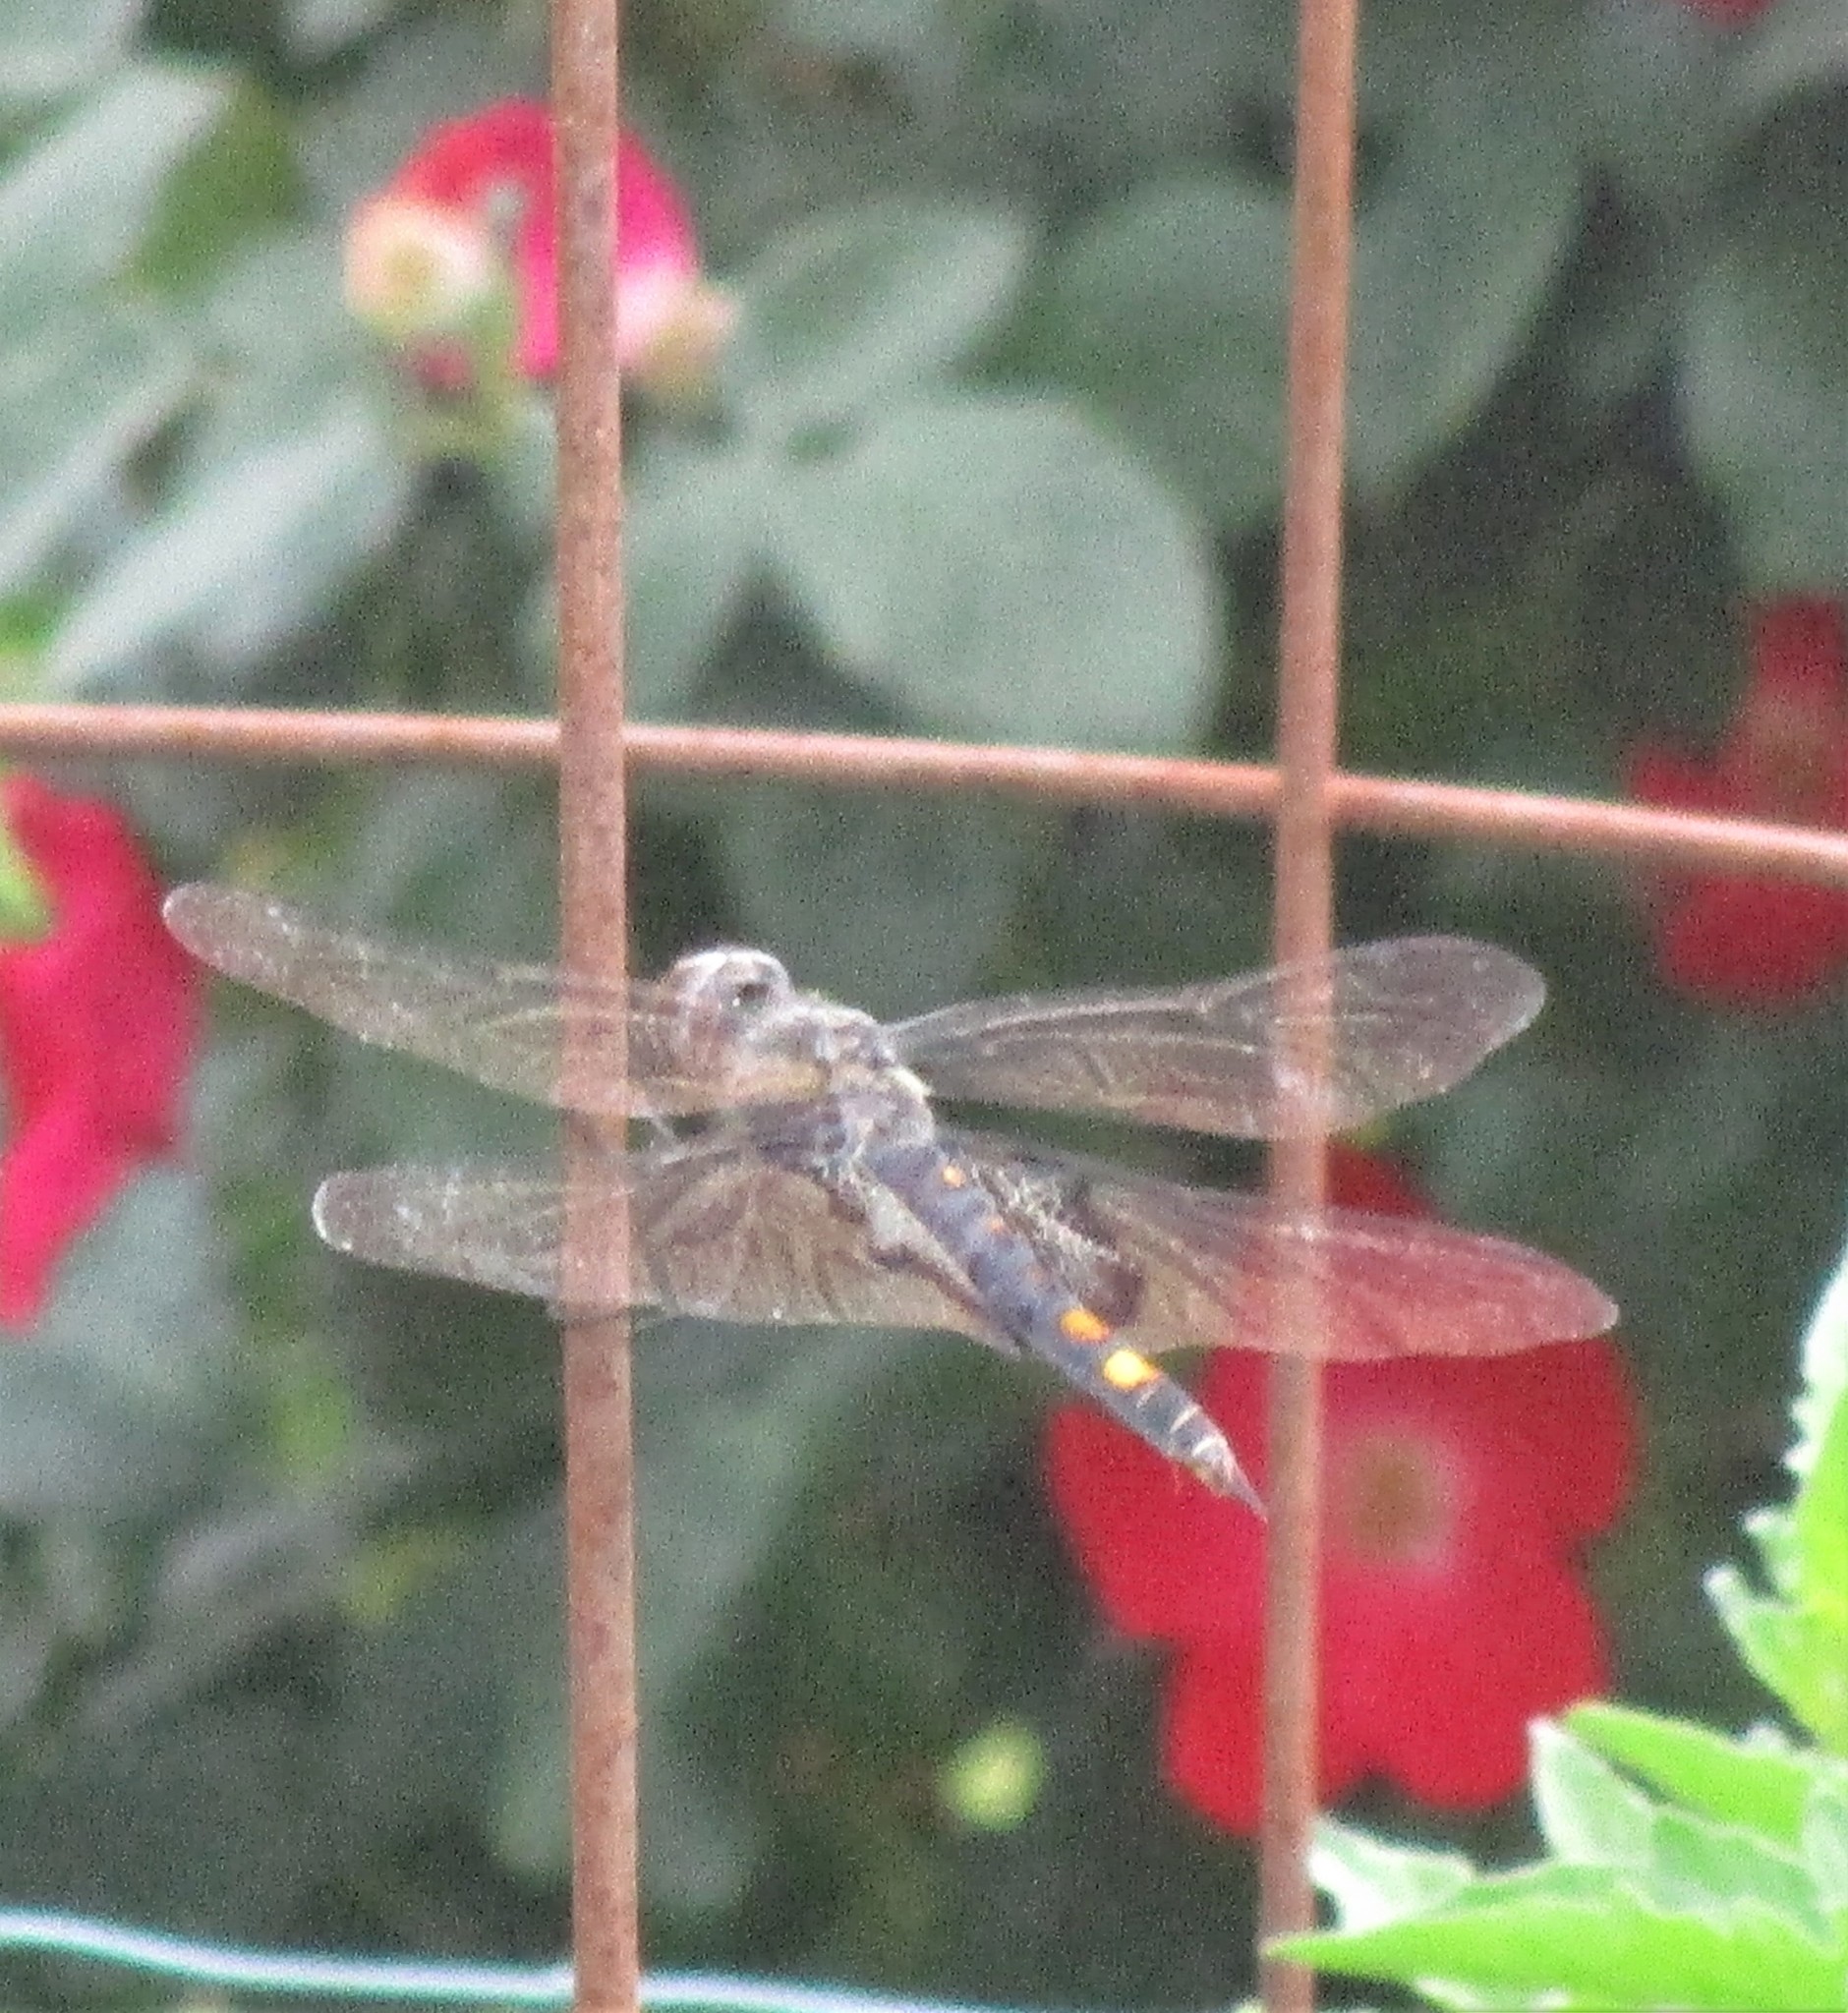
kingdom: Animalia
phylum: Arthropoda
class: Insecta
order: Odonata
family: Libellulidae
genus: Tramea
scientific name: Tramea lacerata
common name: Black saddlebags
